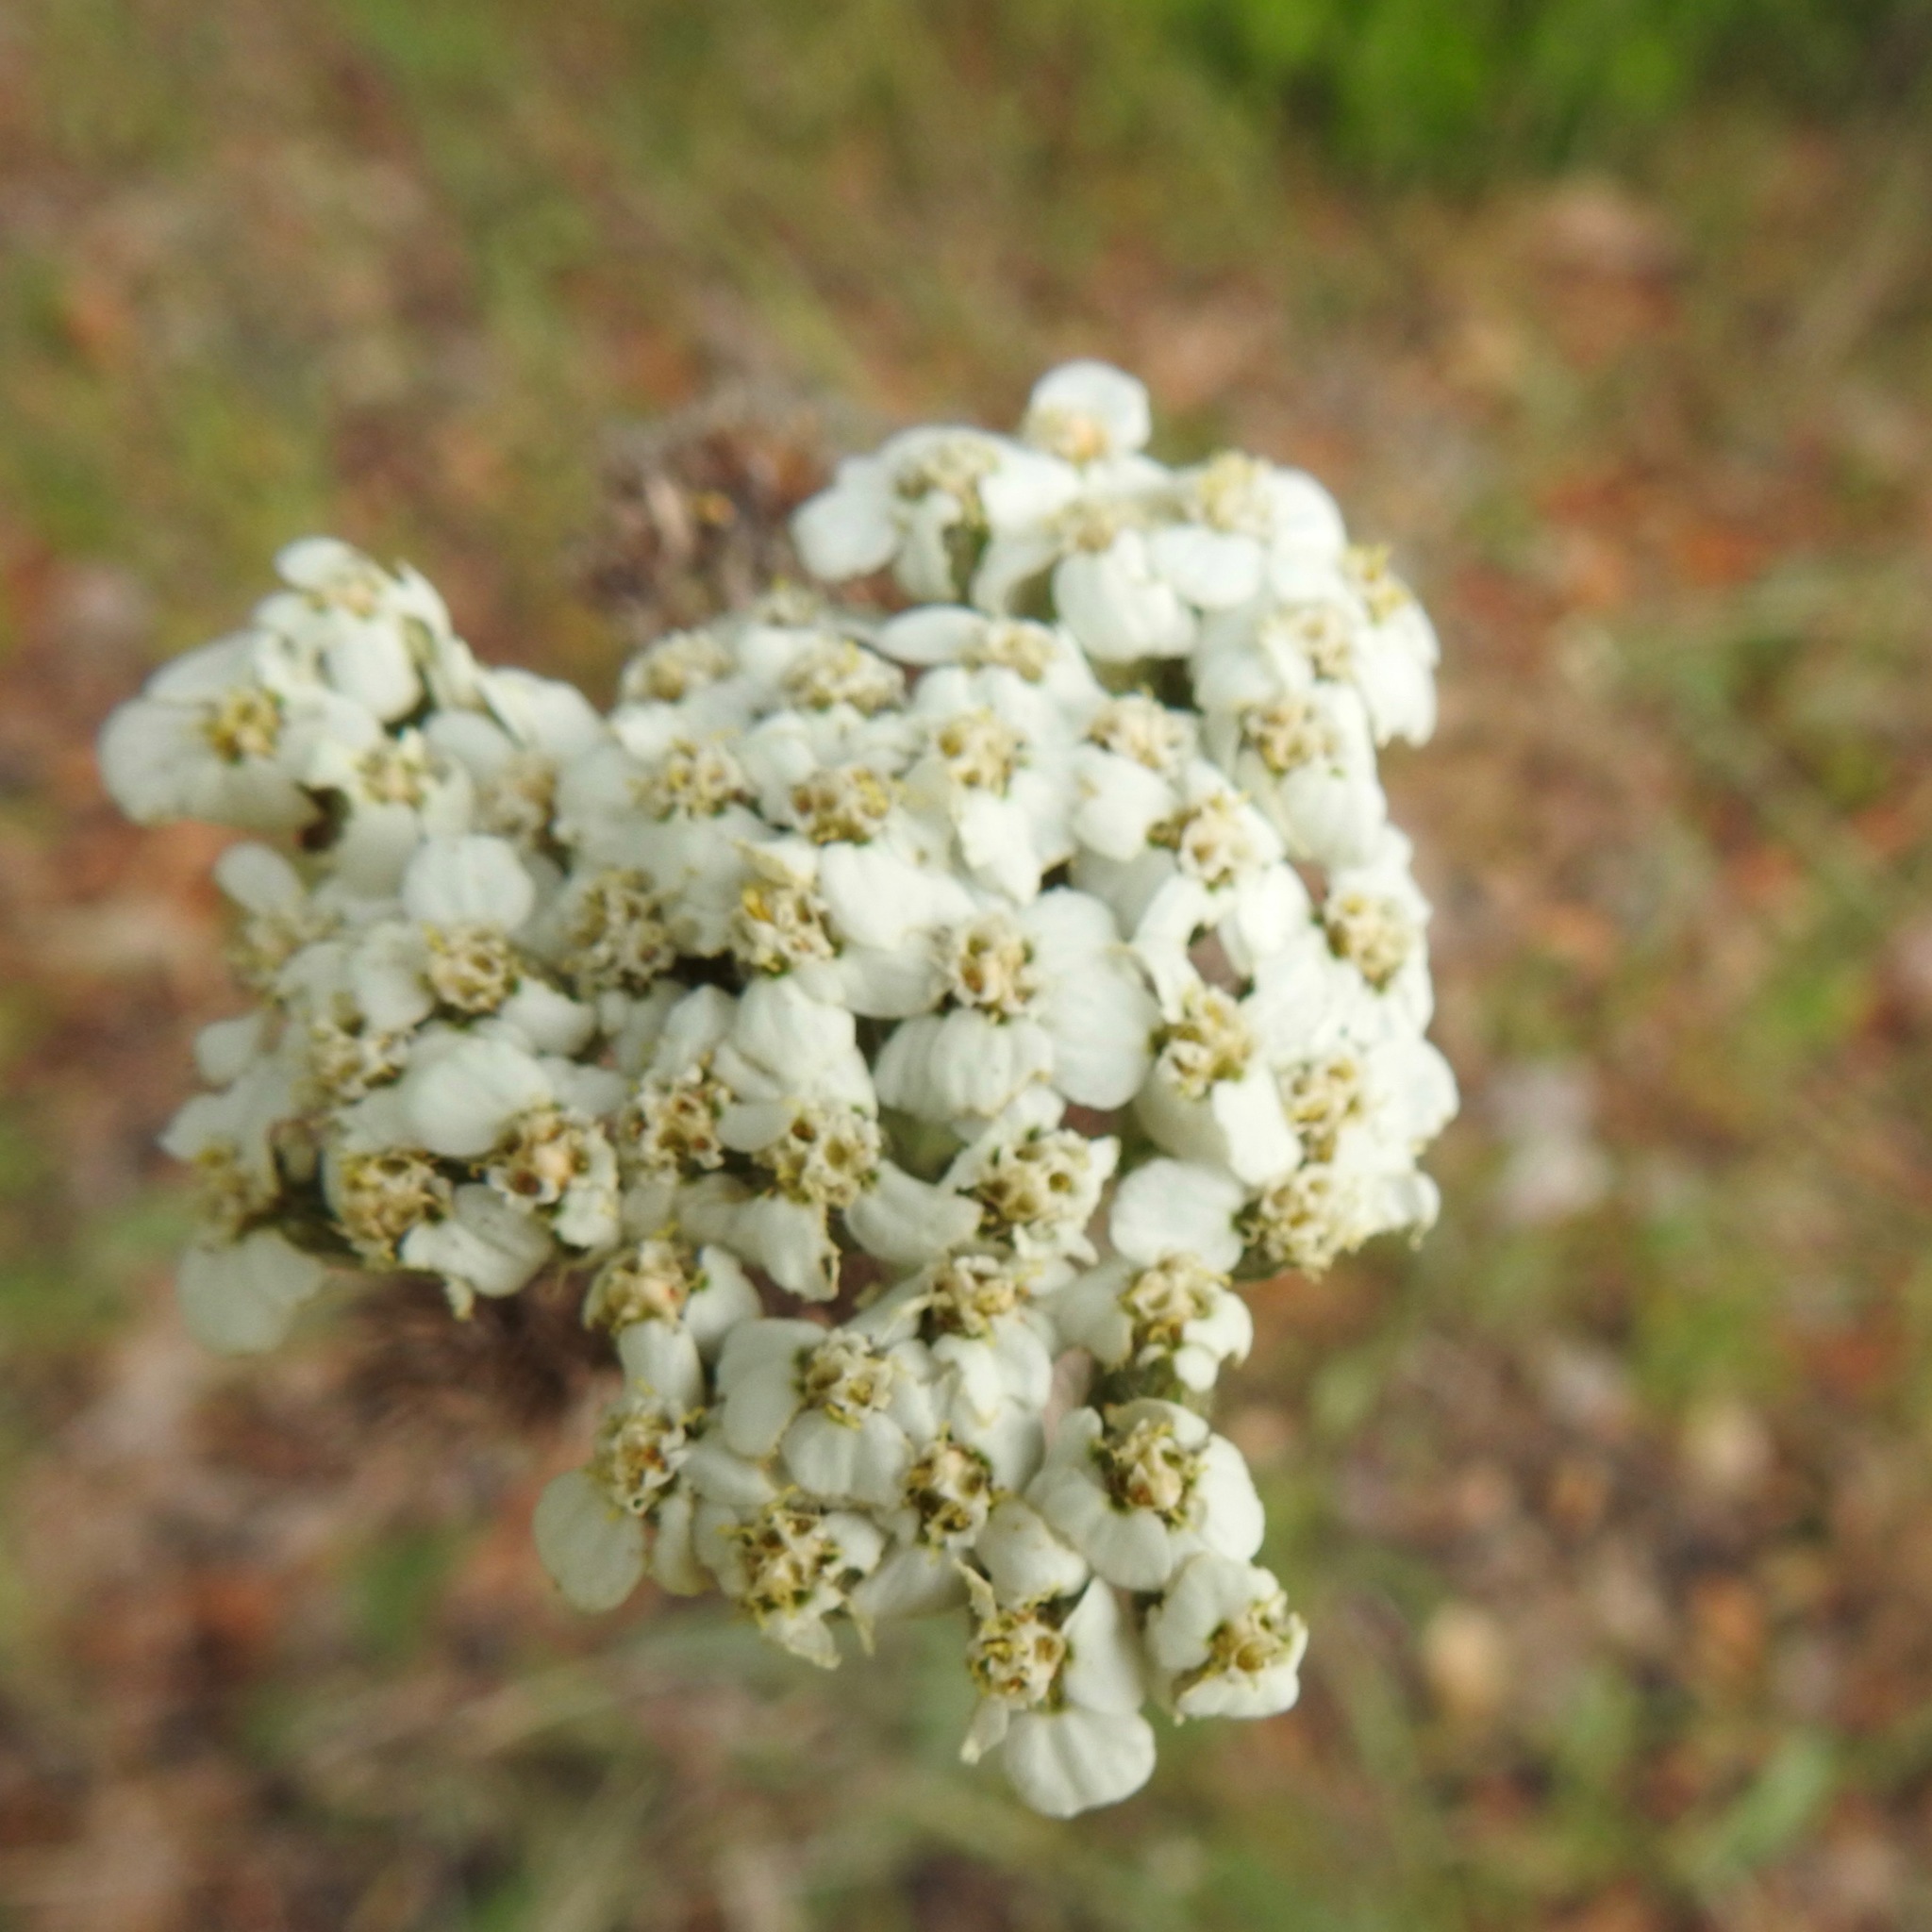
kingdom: Plantae
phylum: Tracheophyta
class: Magnoliopsida
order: Asterales
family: Asteraceae
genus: Achillea
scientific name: Achillea millefolium
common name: Yarrow
